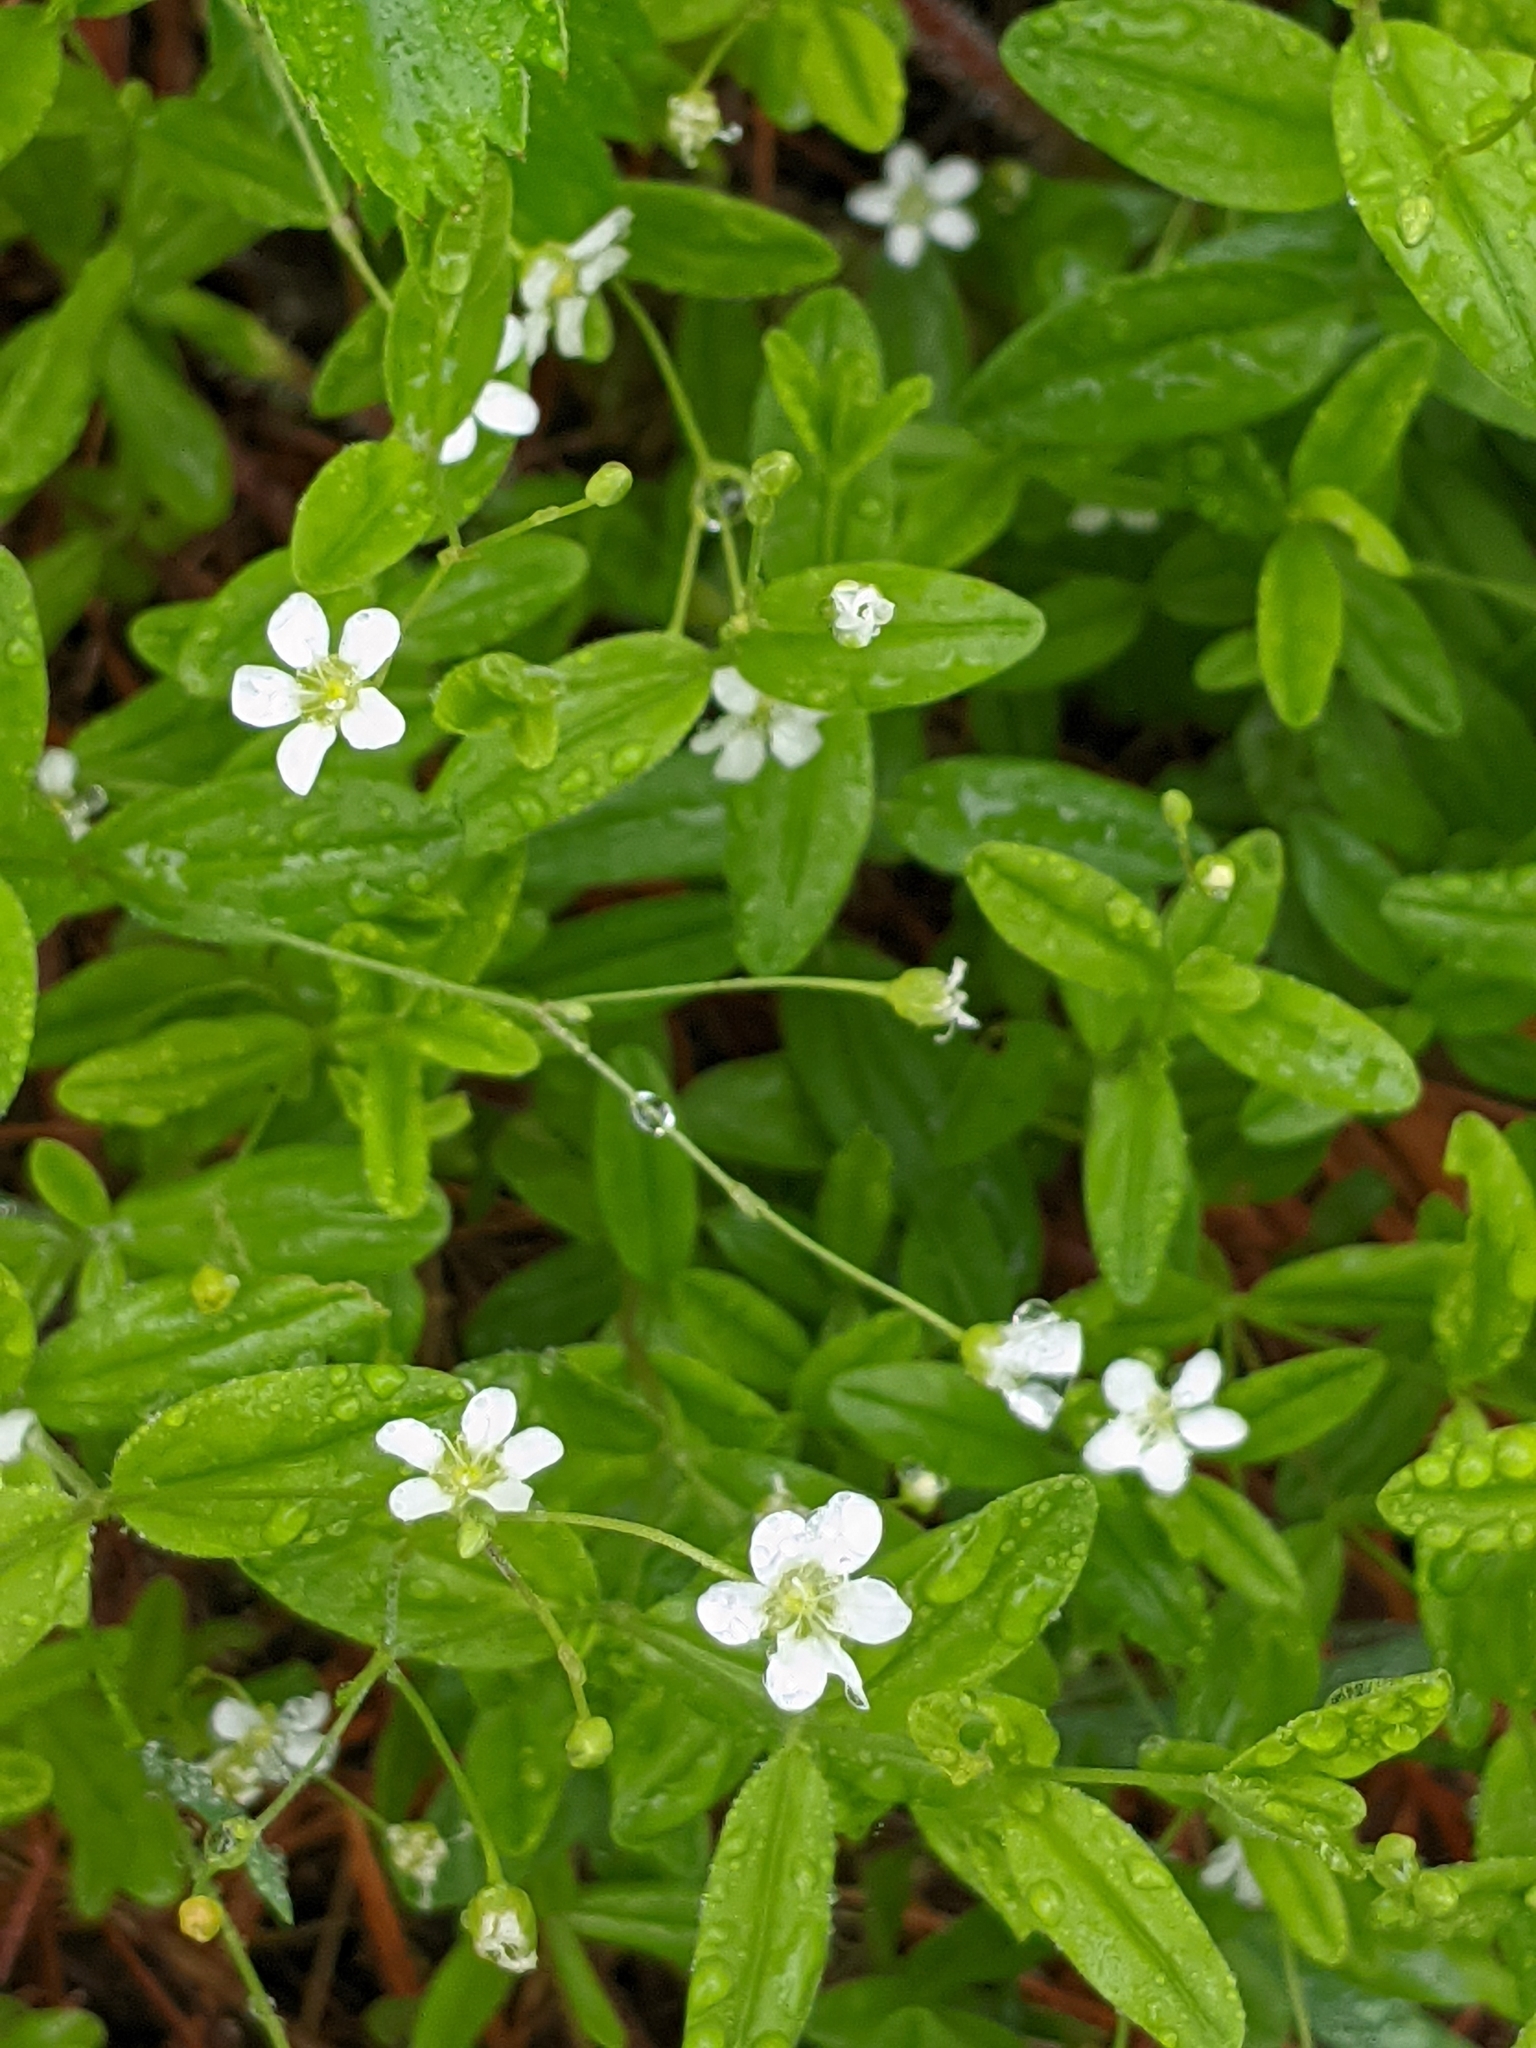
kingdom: Plantae
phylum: Tracheophyta
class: Magnoliopsida
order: Caryophyllales
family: Caryophyllaceae
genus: Moehringia
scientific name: Moehringia lateriflora
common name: Blunt-leaved sandwort
